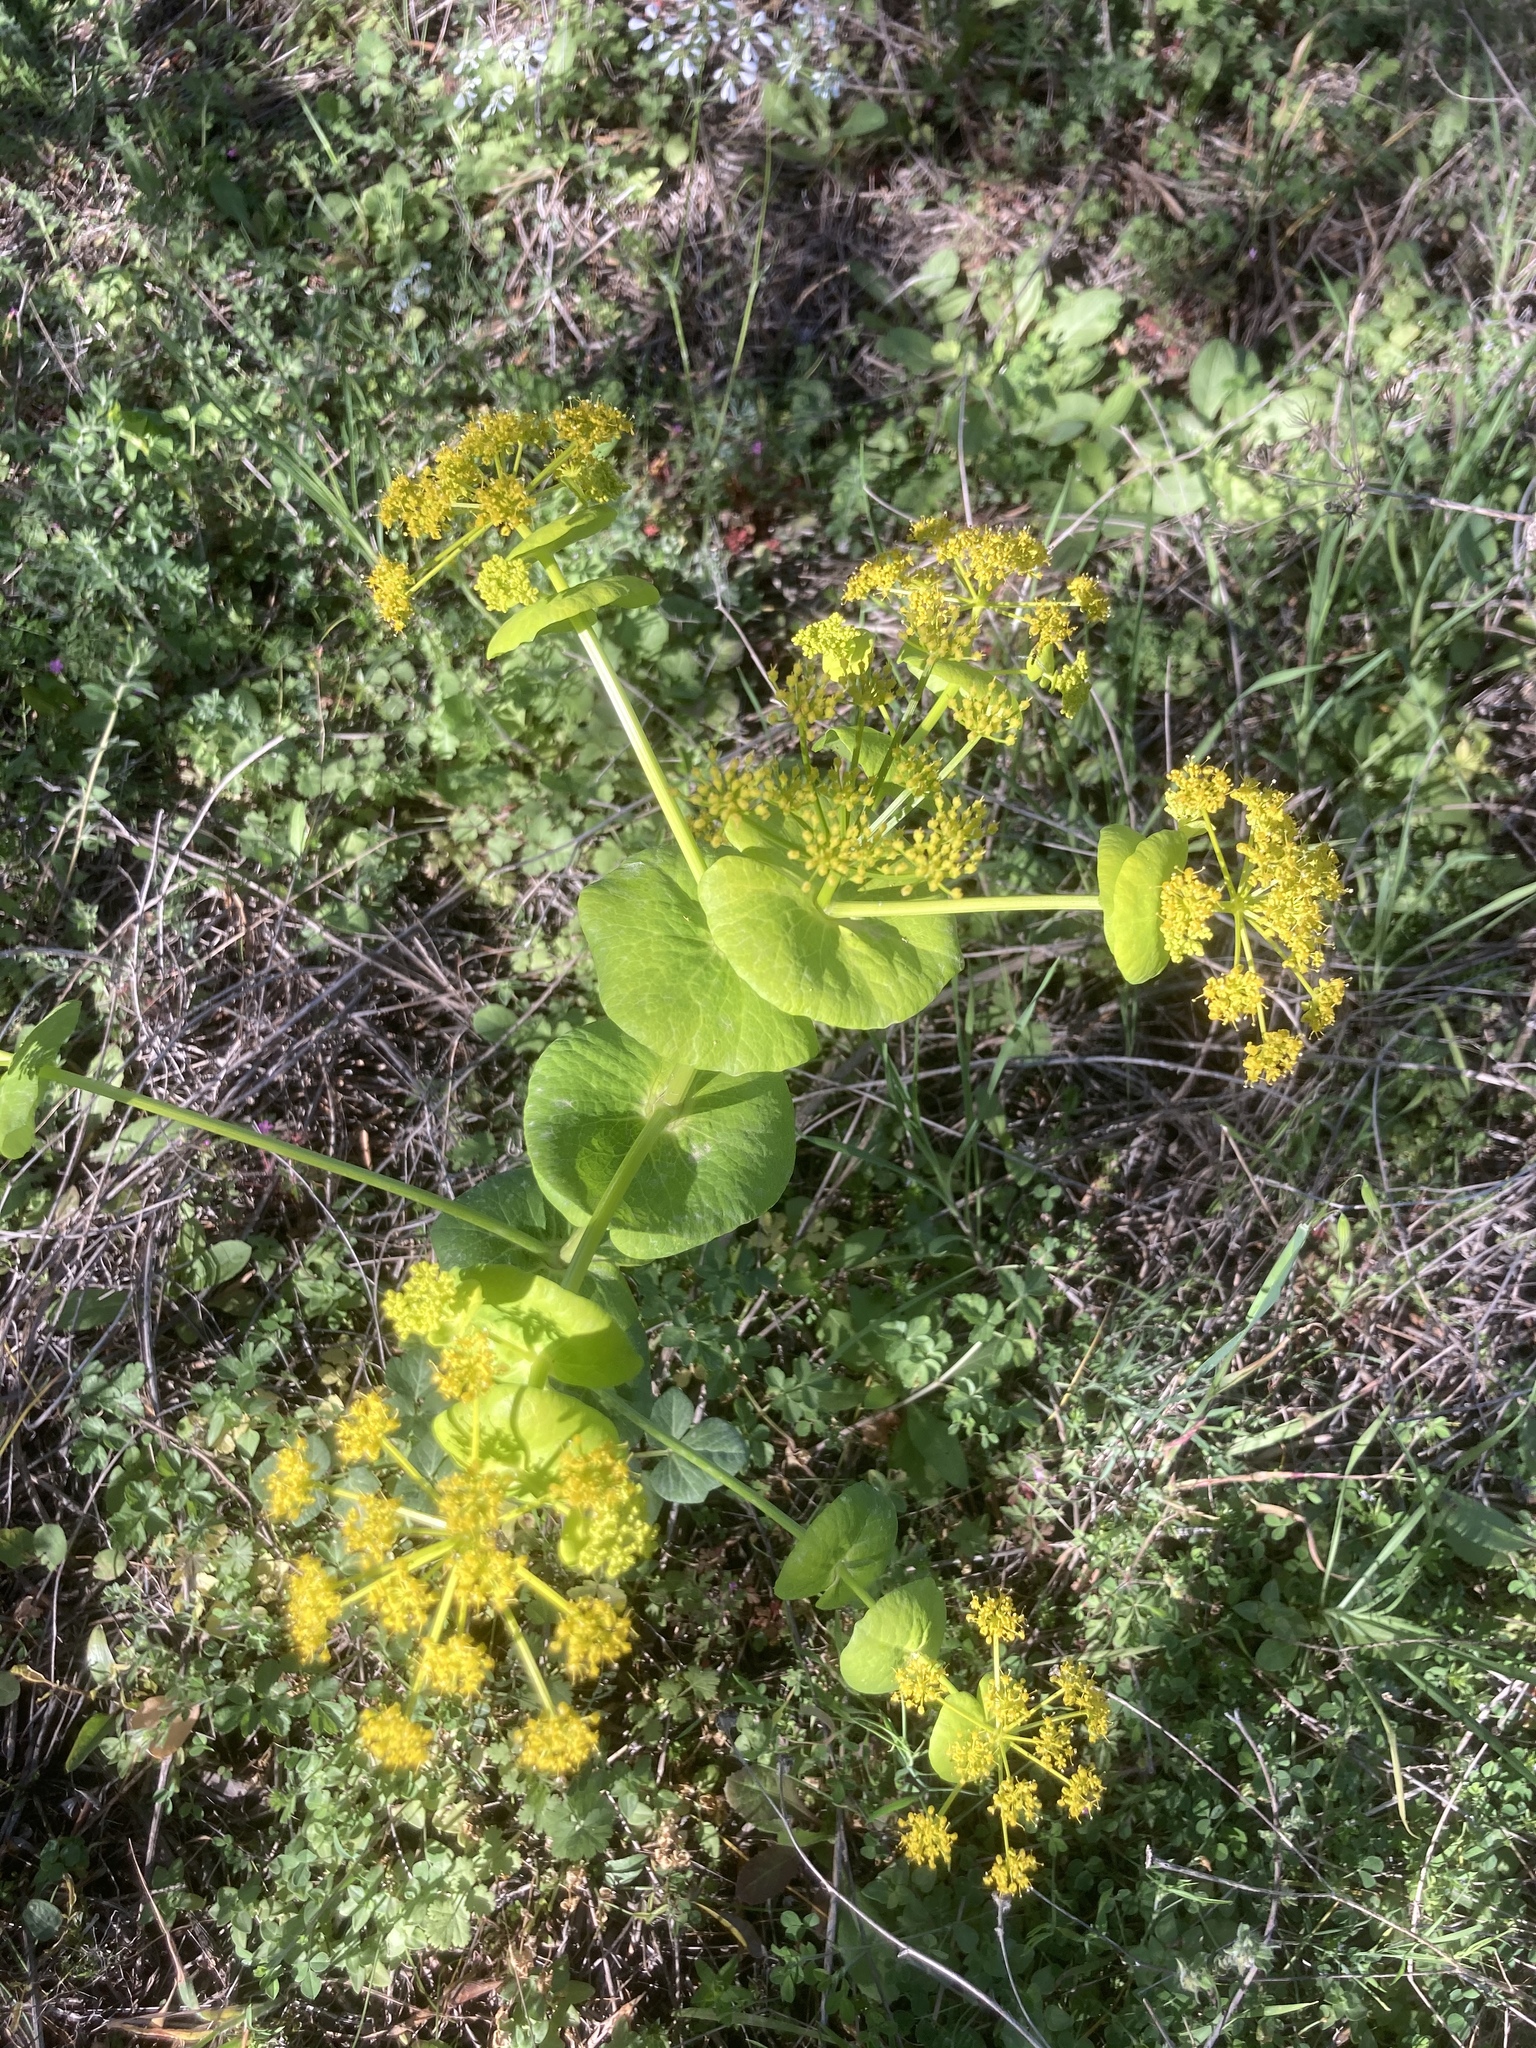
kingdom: Plantae
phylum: Tracheophyta
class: Magnoliopsida
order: Apiales
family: Apiaceae
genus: Smyrnium
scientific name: Smyrnium perfoliatum
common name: Perfoliate alexanders
